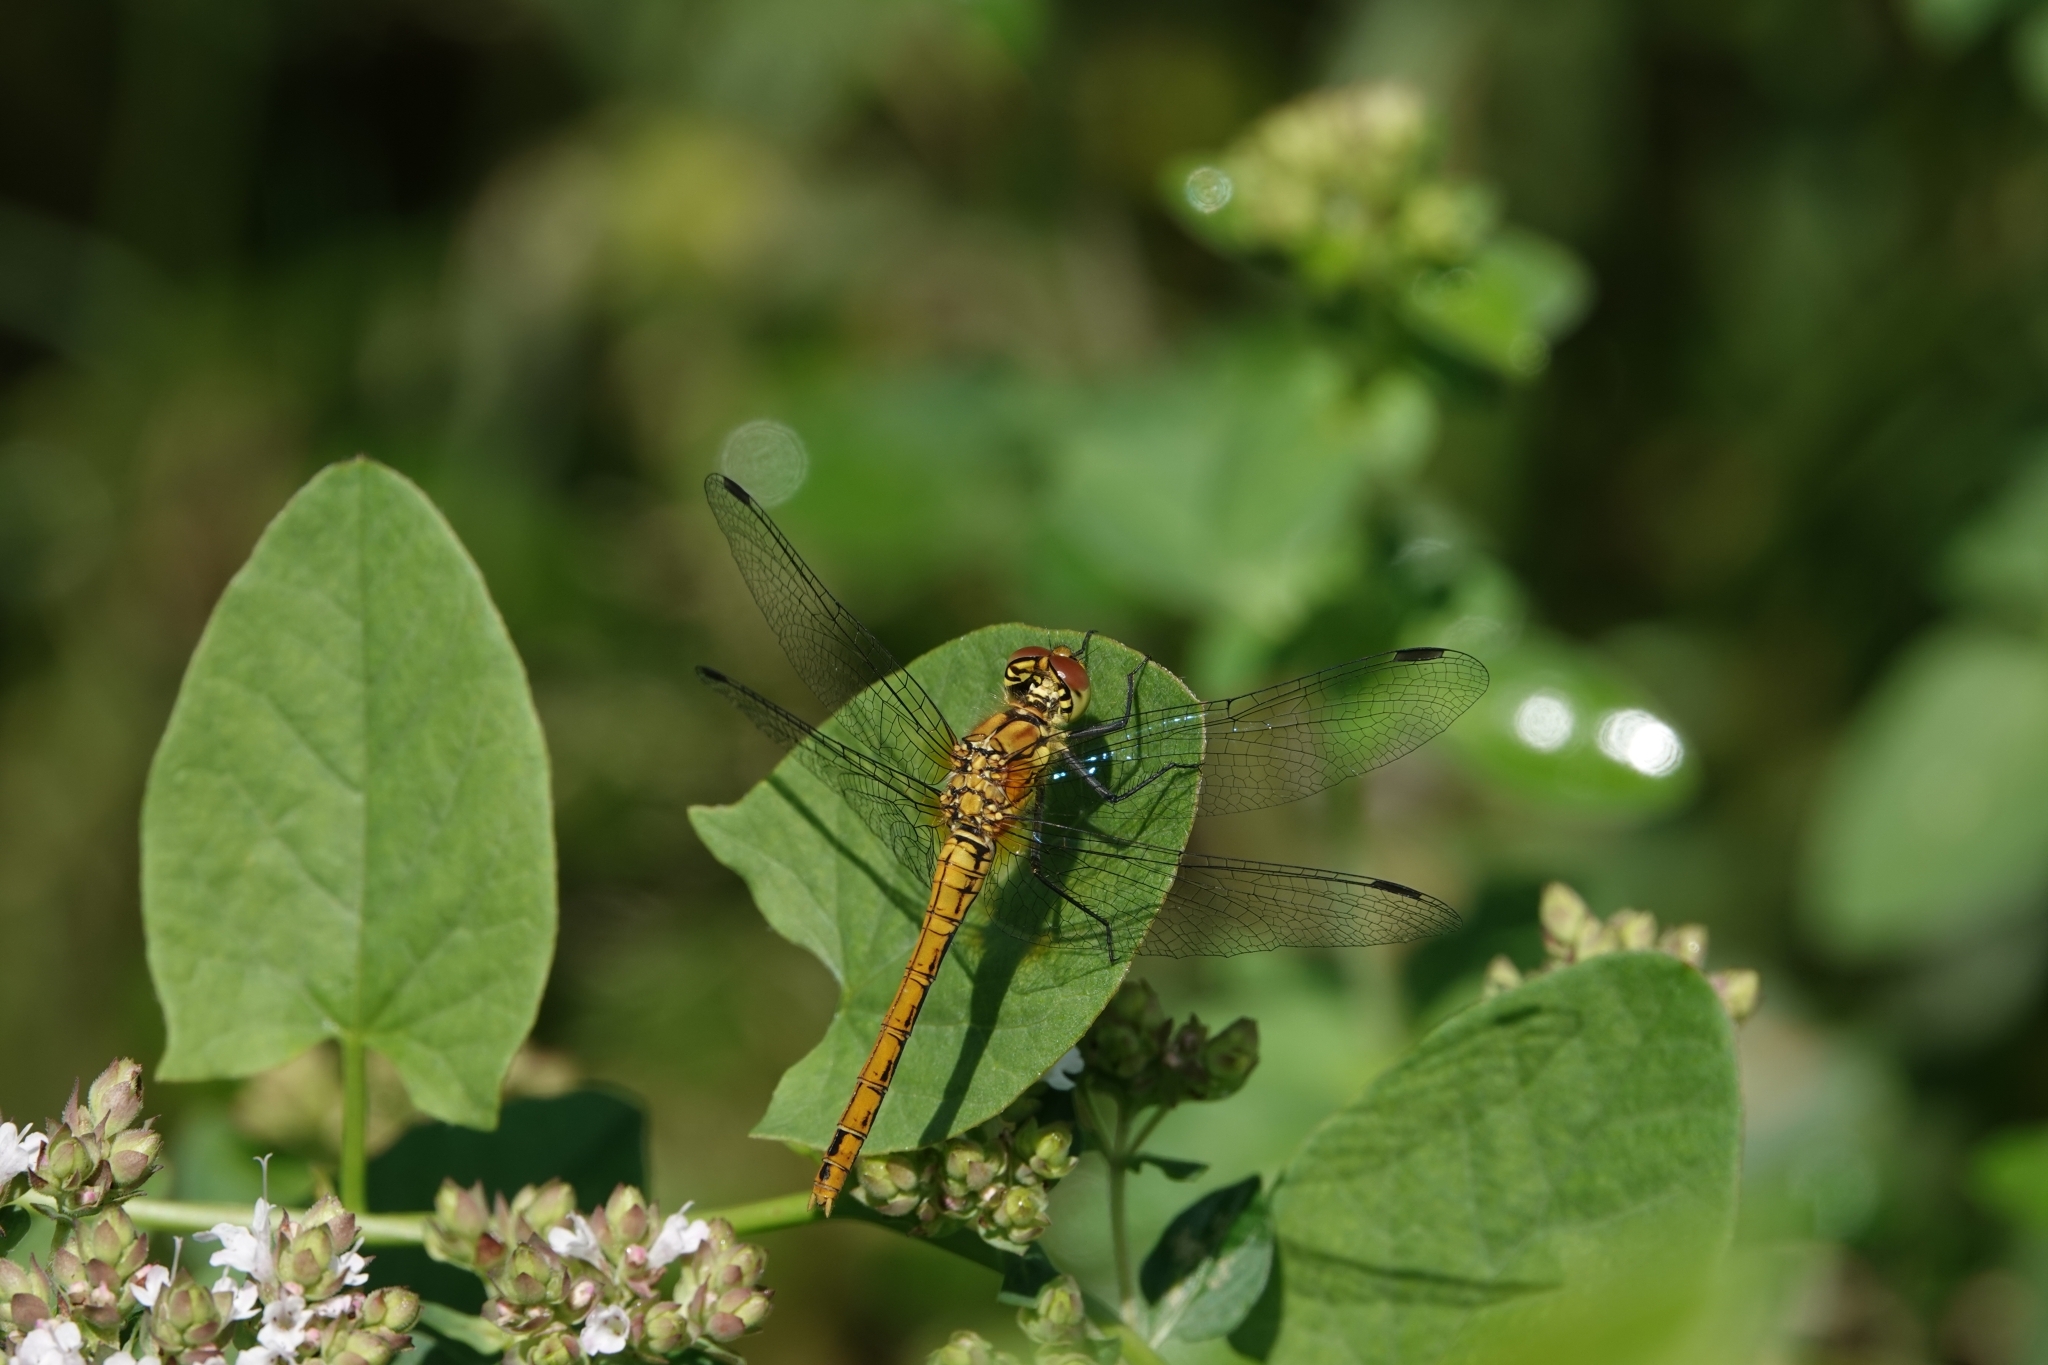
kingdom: Animalia
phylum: Arthropoda
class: Insecta
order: Odonata
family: Libellulidae
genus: Sympetrum
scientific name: Sympetrum sanguineum
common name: Ruddy darter
